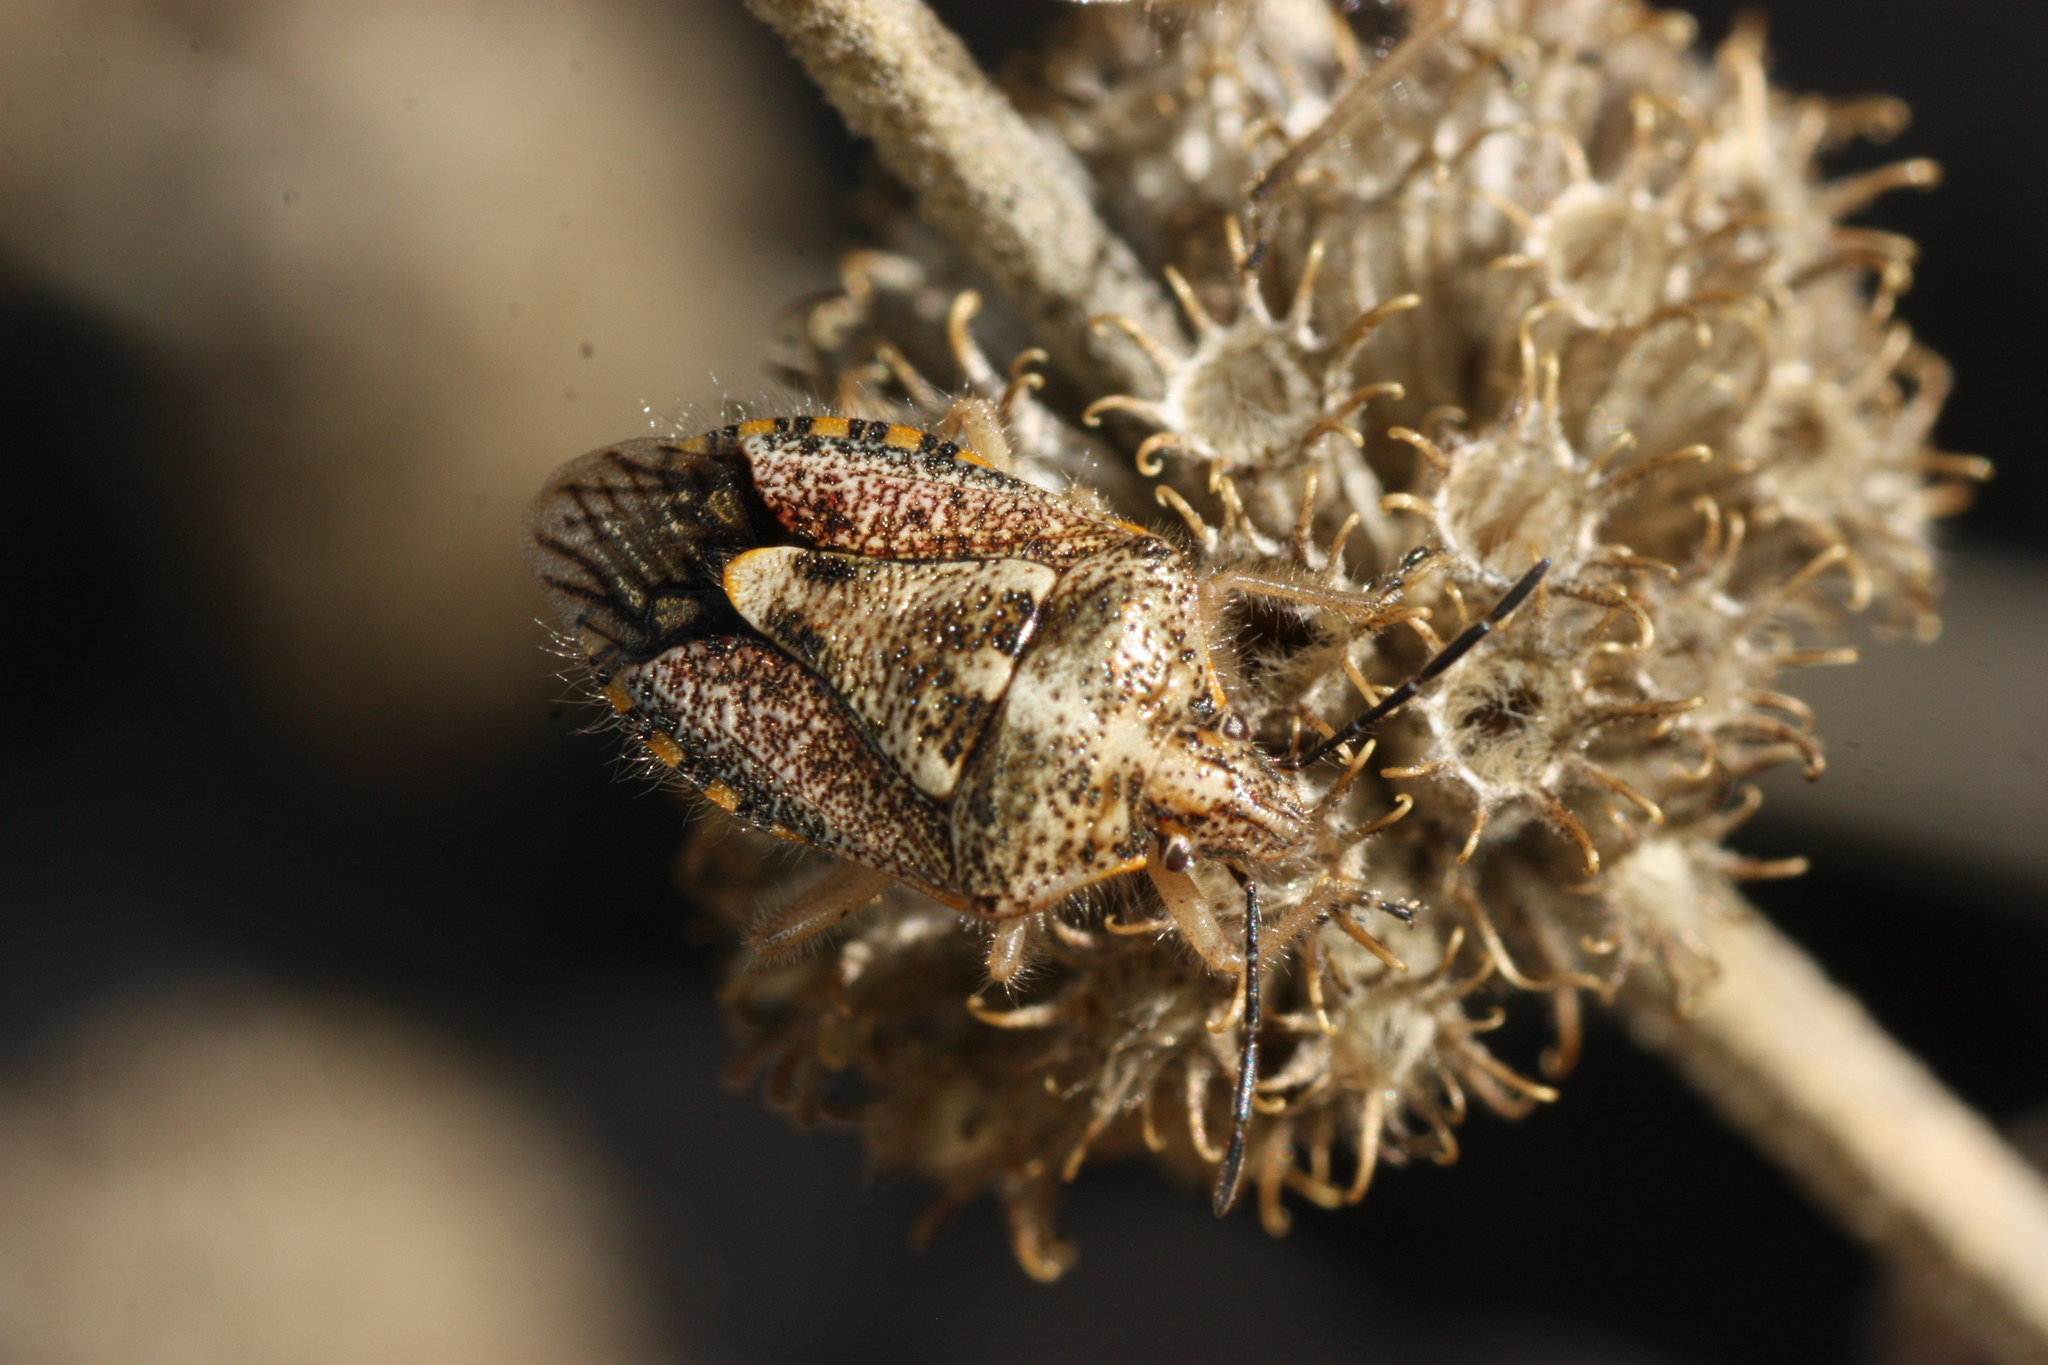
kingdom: Animalia
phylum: Arthropoda
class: Insecta
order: Hemiptera
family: Pentatomidae
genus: Agonoscelis
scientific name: Agonoscelis puberula
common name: African cluster bug
